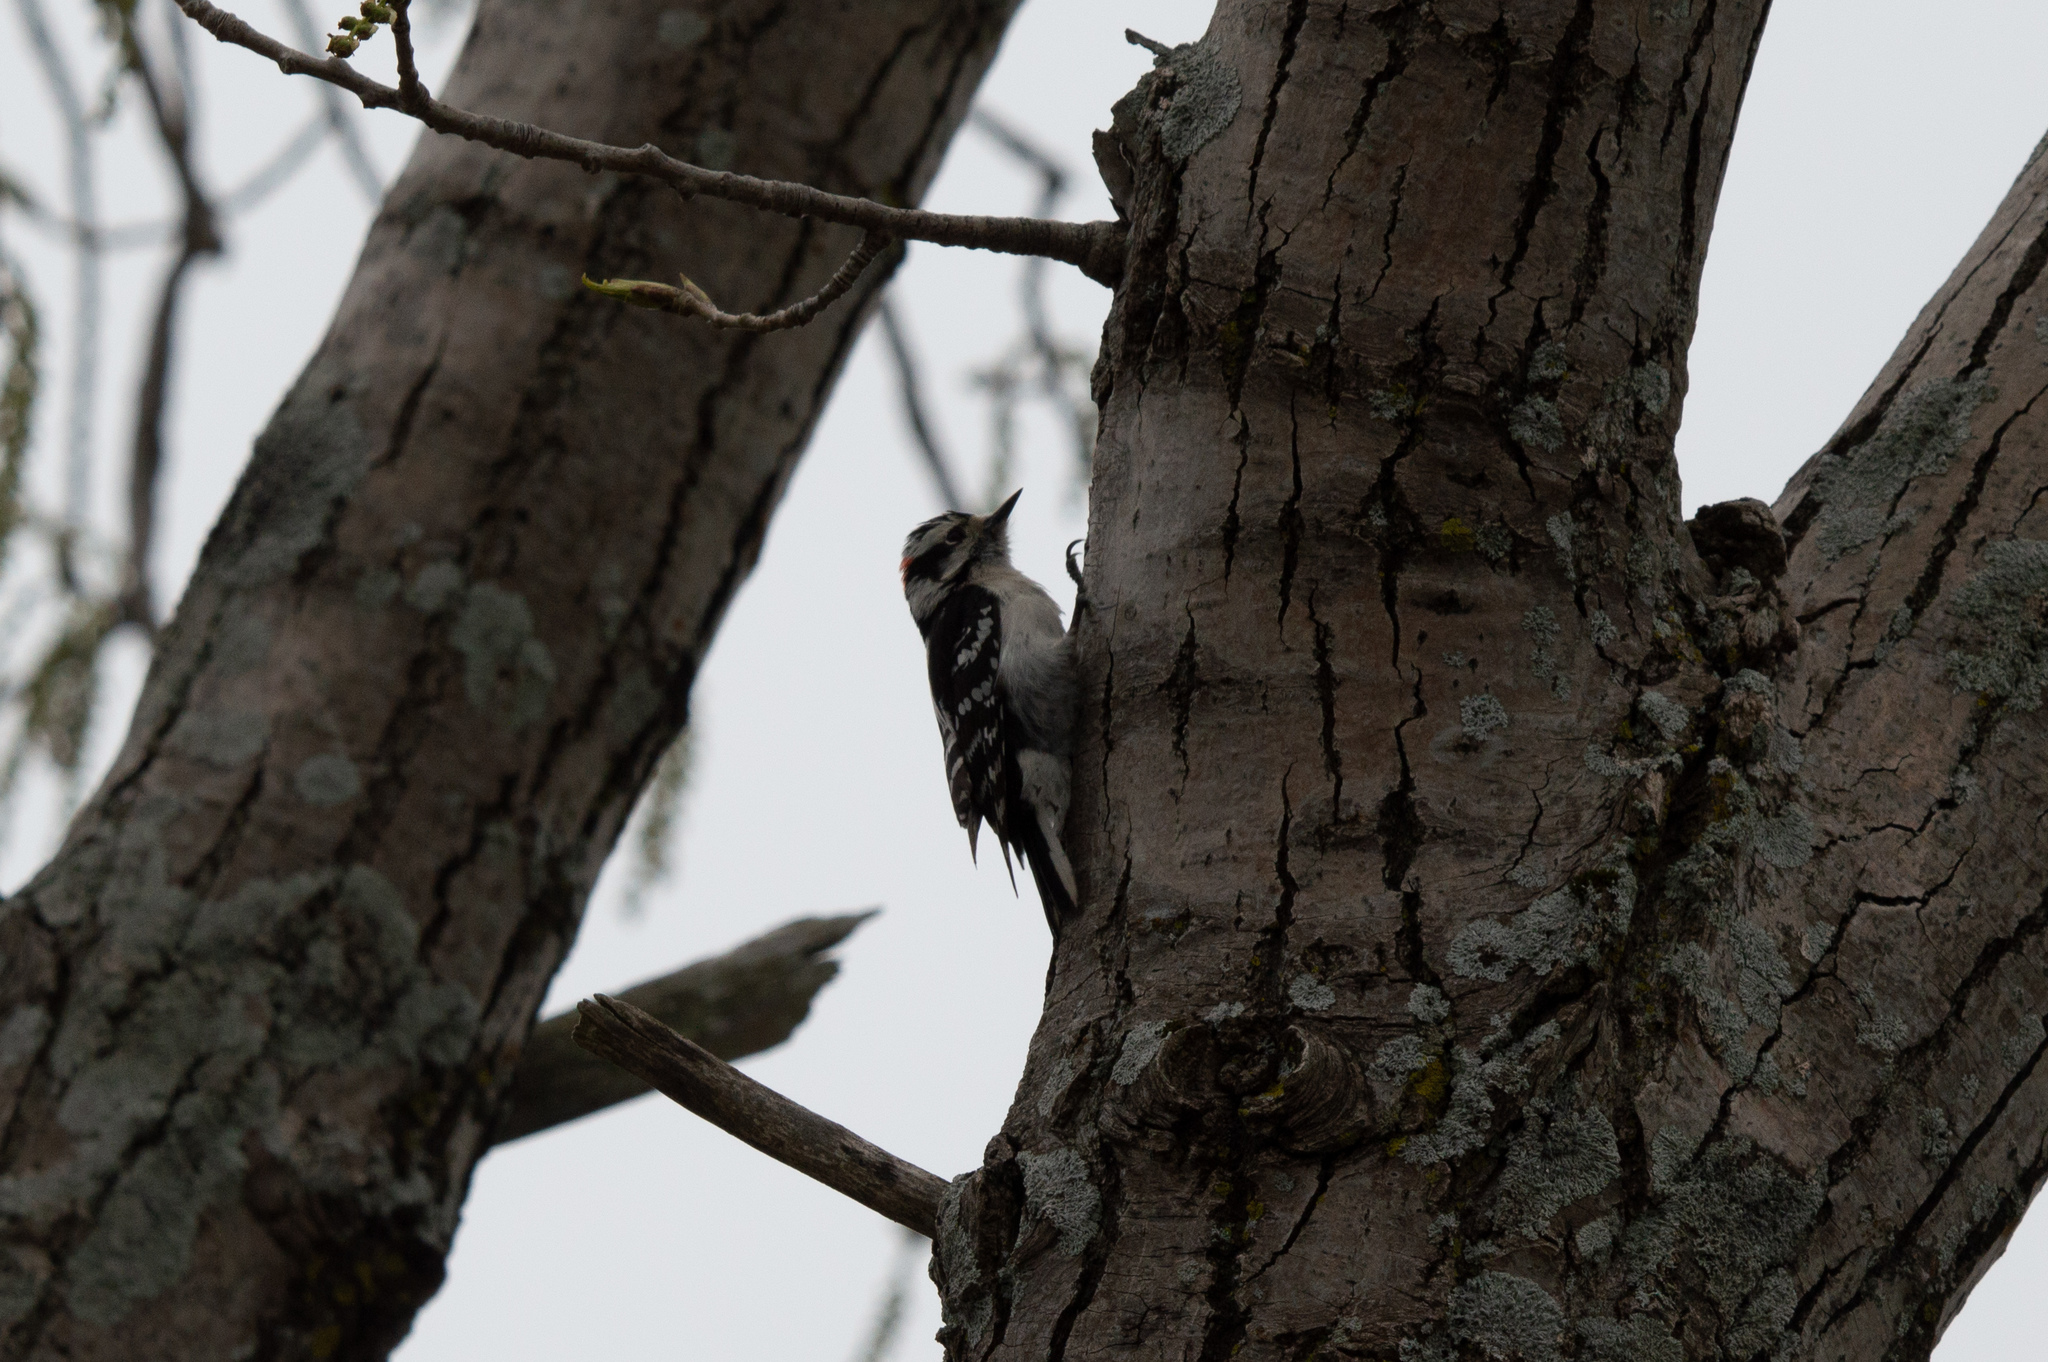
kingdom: Animalia
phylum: Chordata
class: Aves
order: Piciformes
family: Picidae
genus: Dryobates
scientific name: Dryobates pubescens
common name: Downy woodpecker
